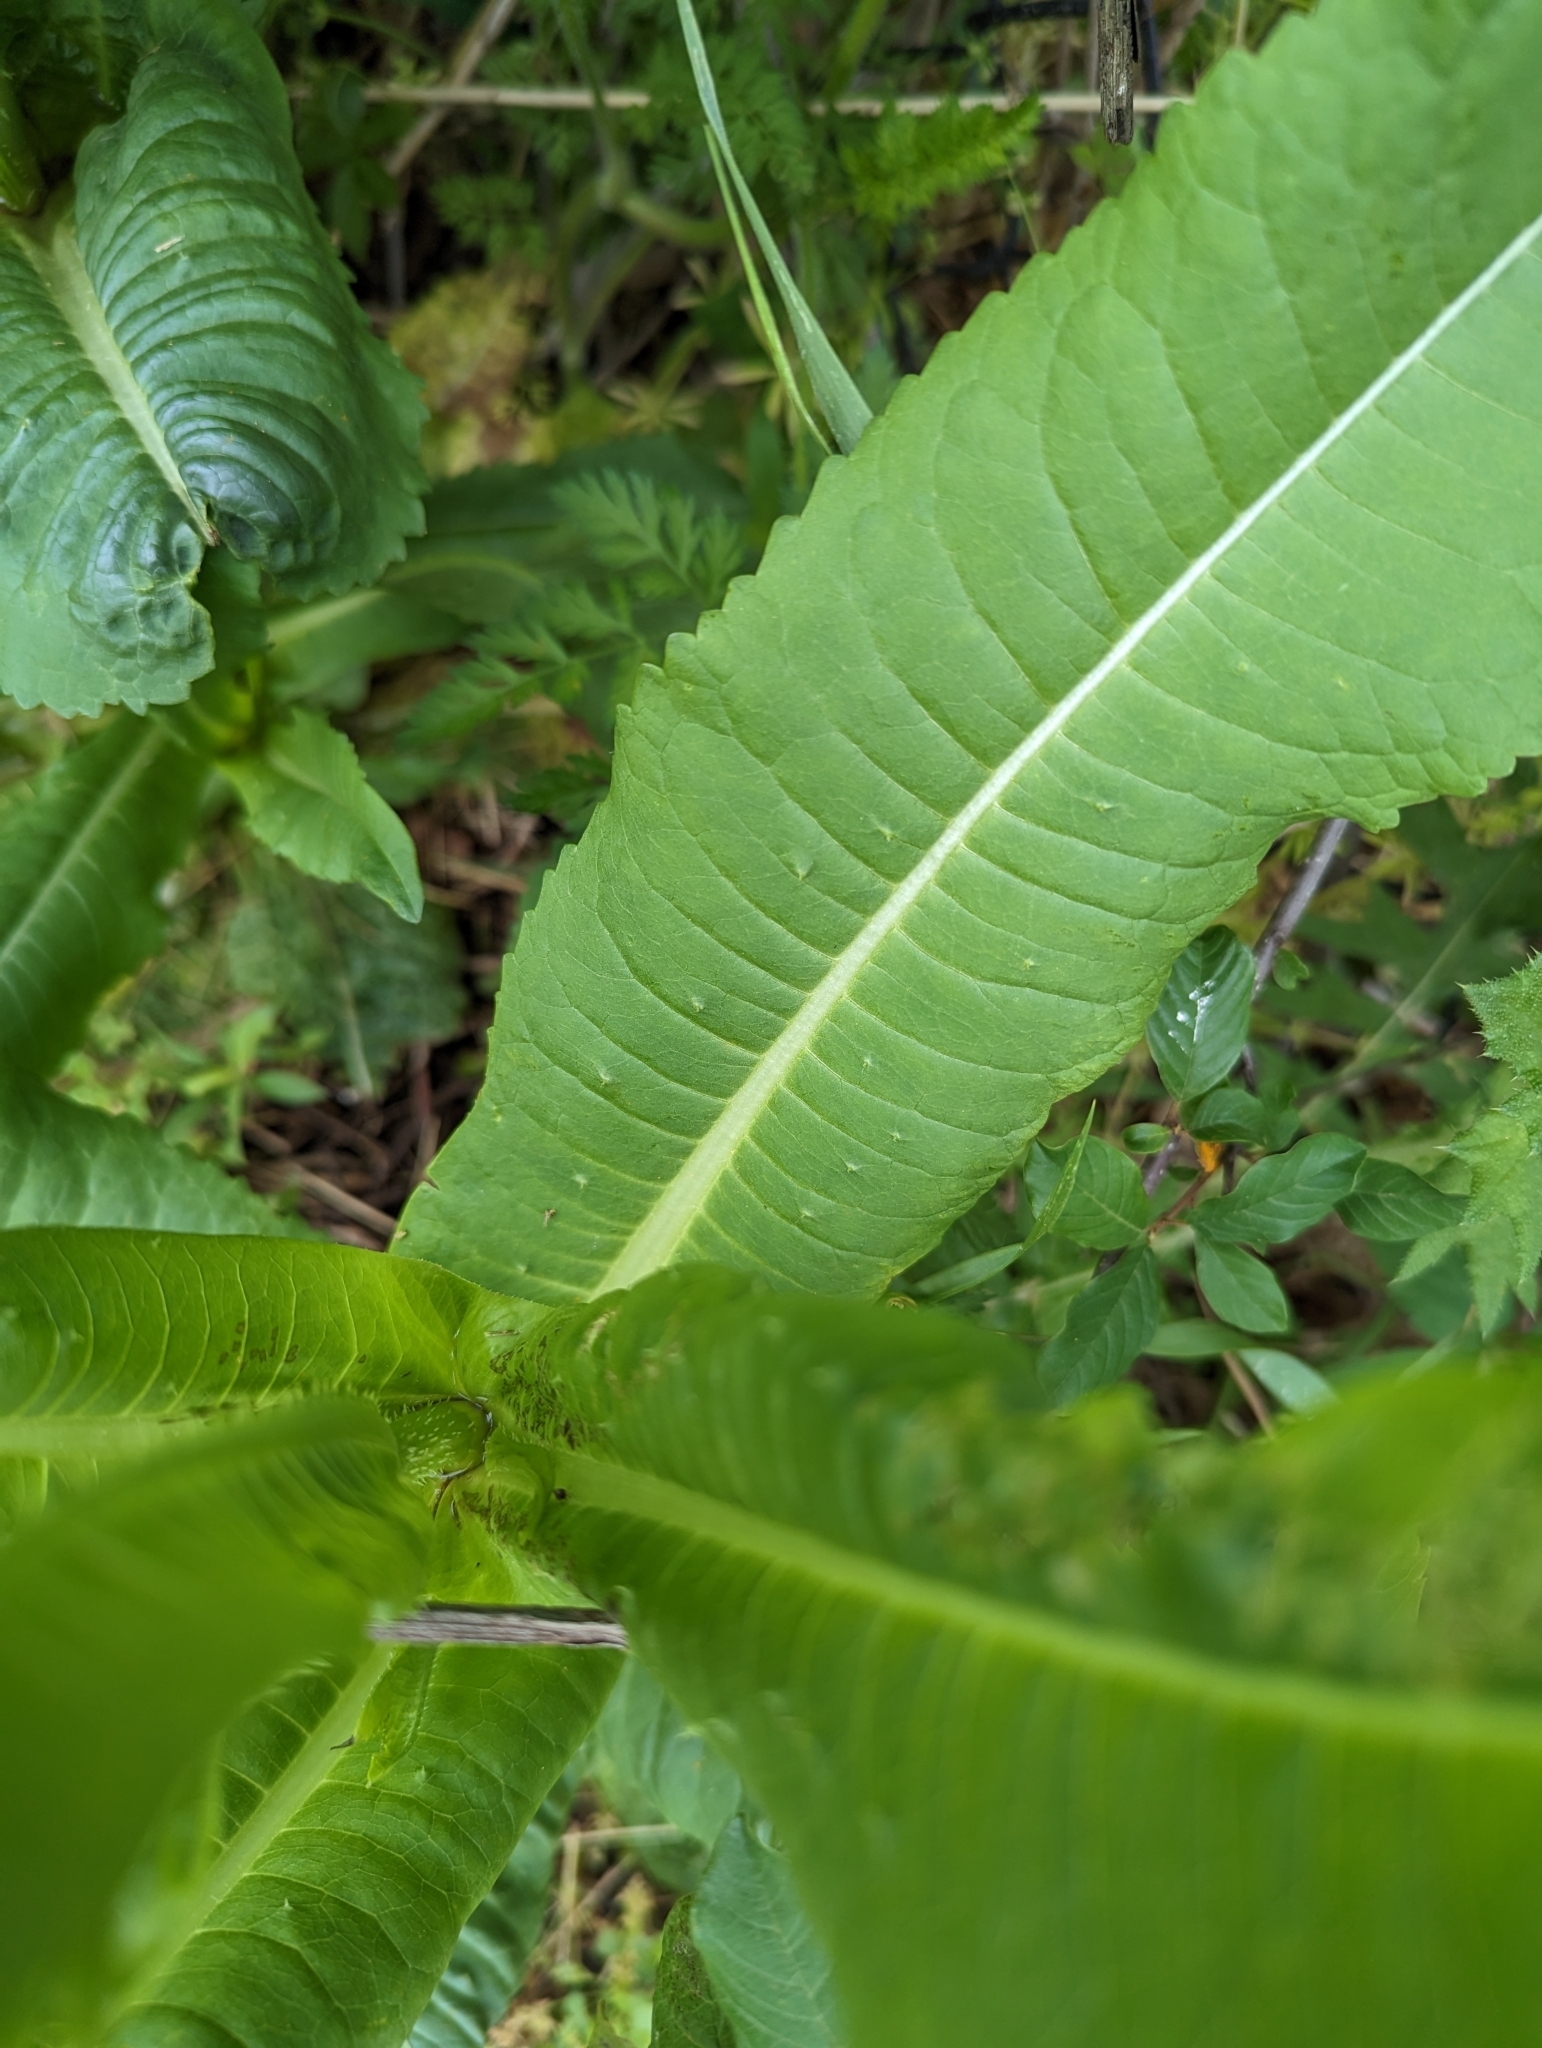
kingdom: Plantae
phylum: Tracheophyta
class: Magnoliopsida
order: Dipsacales
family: Caprifoliaceae
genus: Dipsacus
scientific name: Dipsacus fullonum
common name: Teasel
